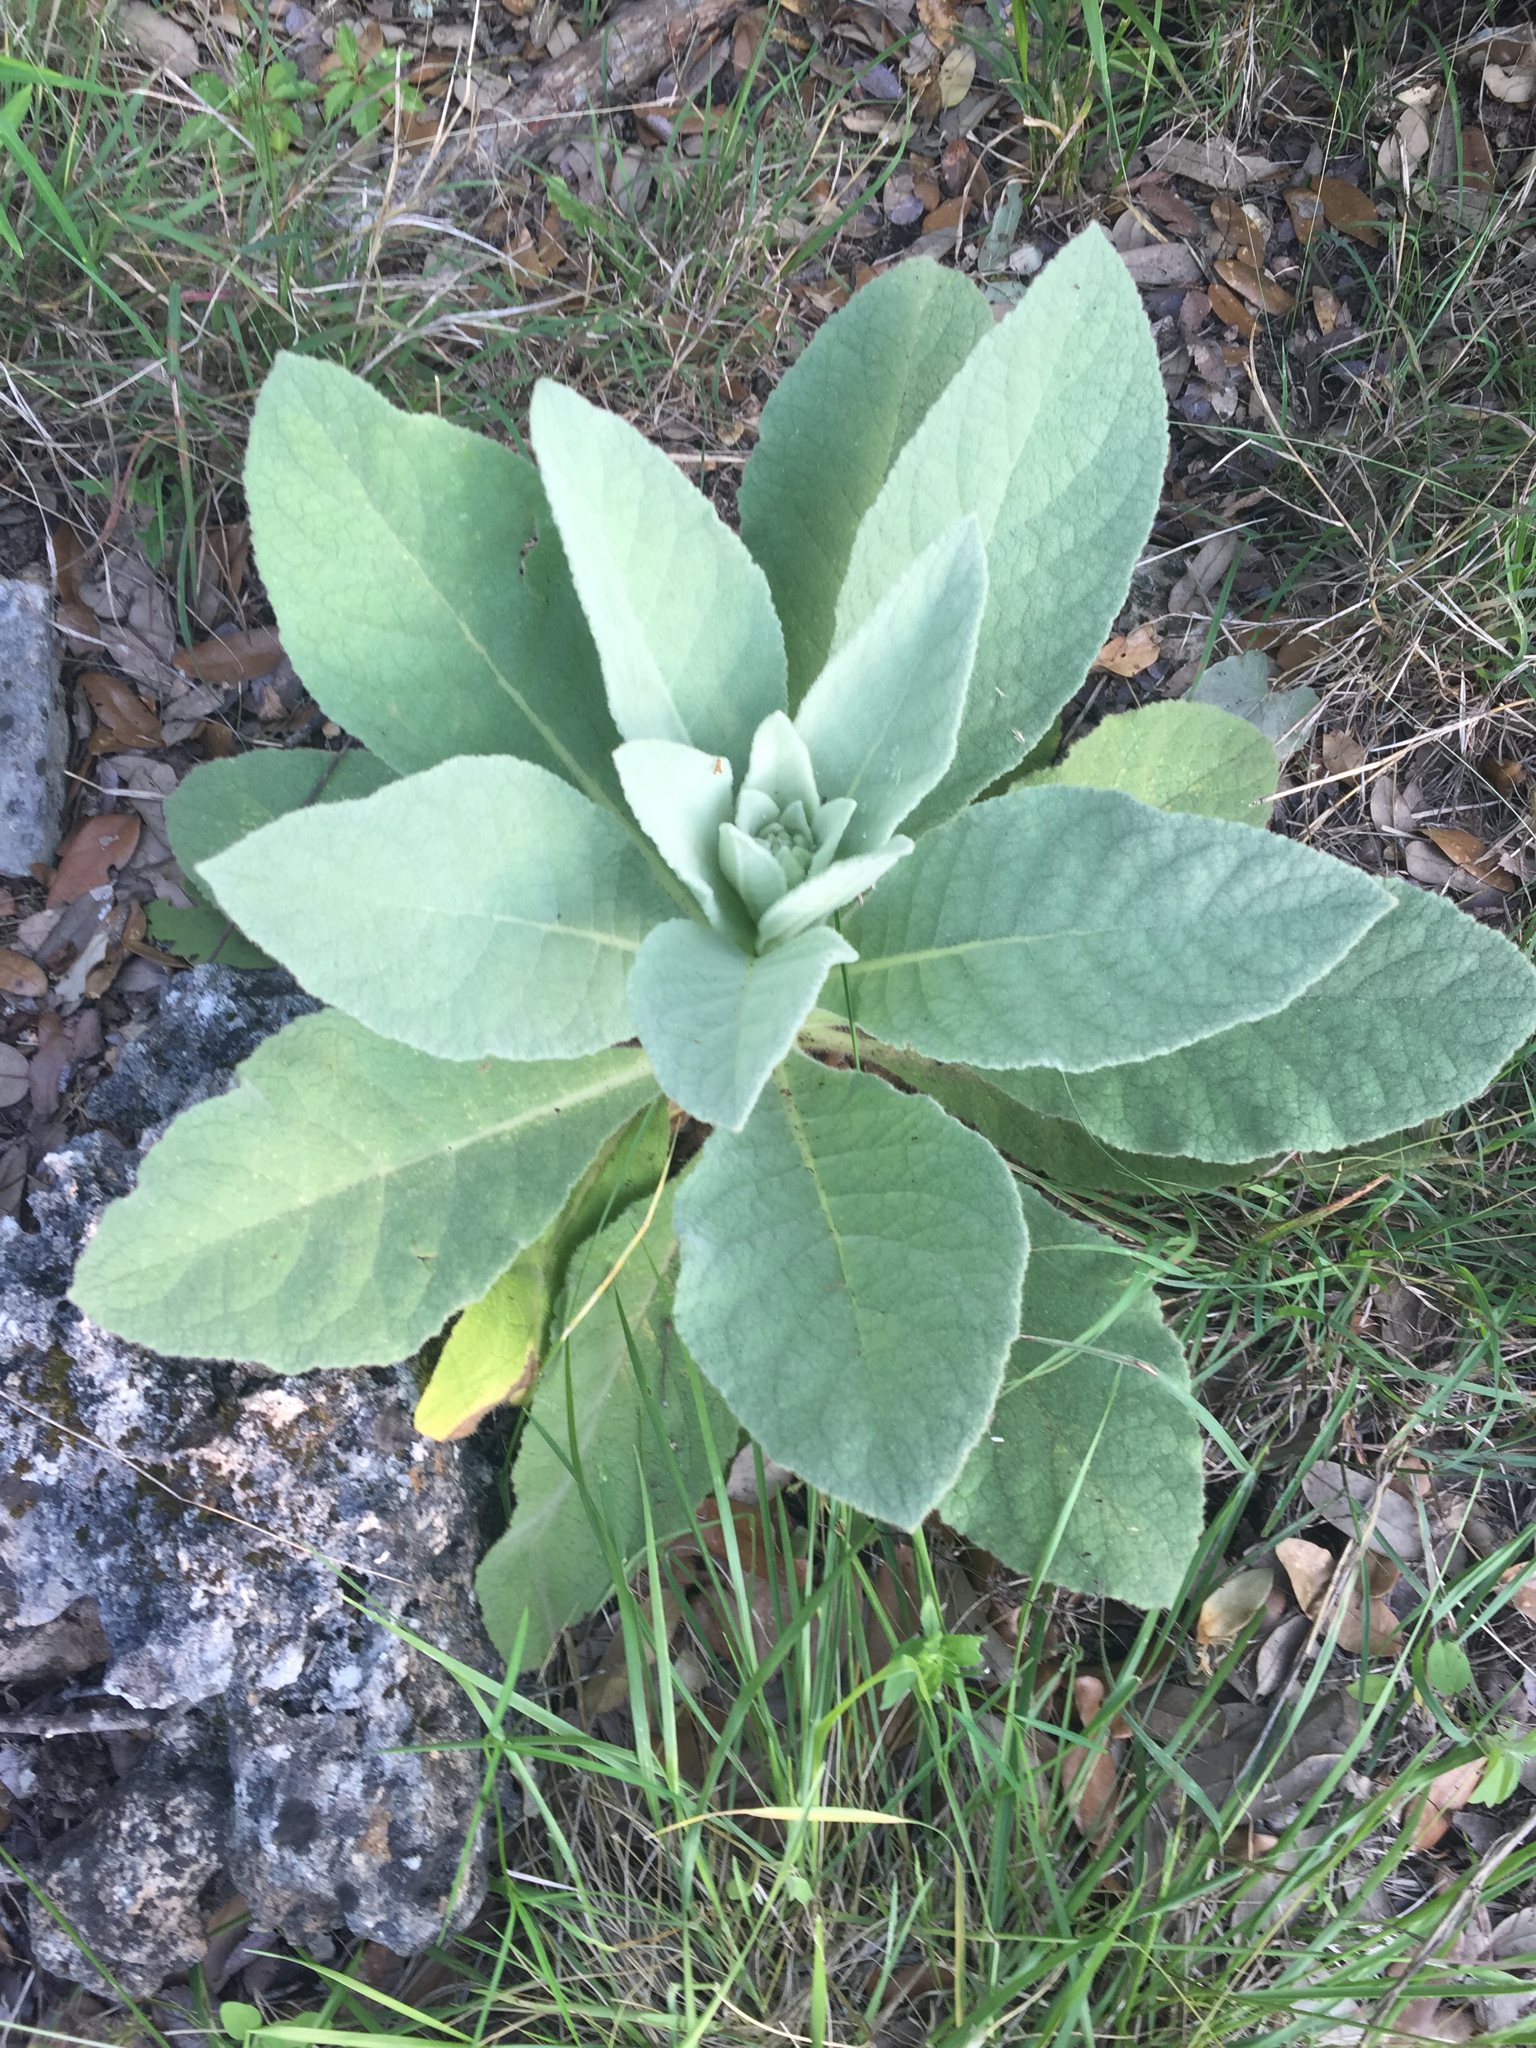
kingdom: Plantae
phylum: Tracheophyta
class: Magnoliopsida
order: Lamiales
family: Scrophulariaceae
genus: Verbascum
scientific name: Verbascum thapsus
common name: Common mullein
